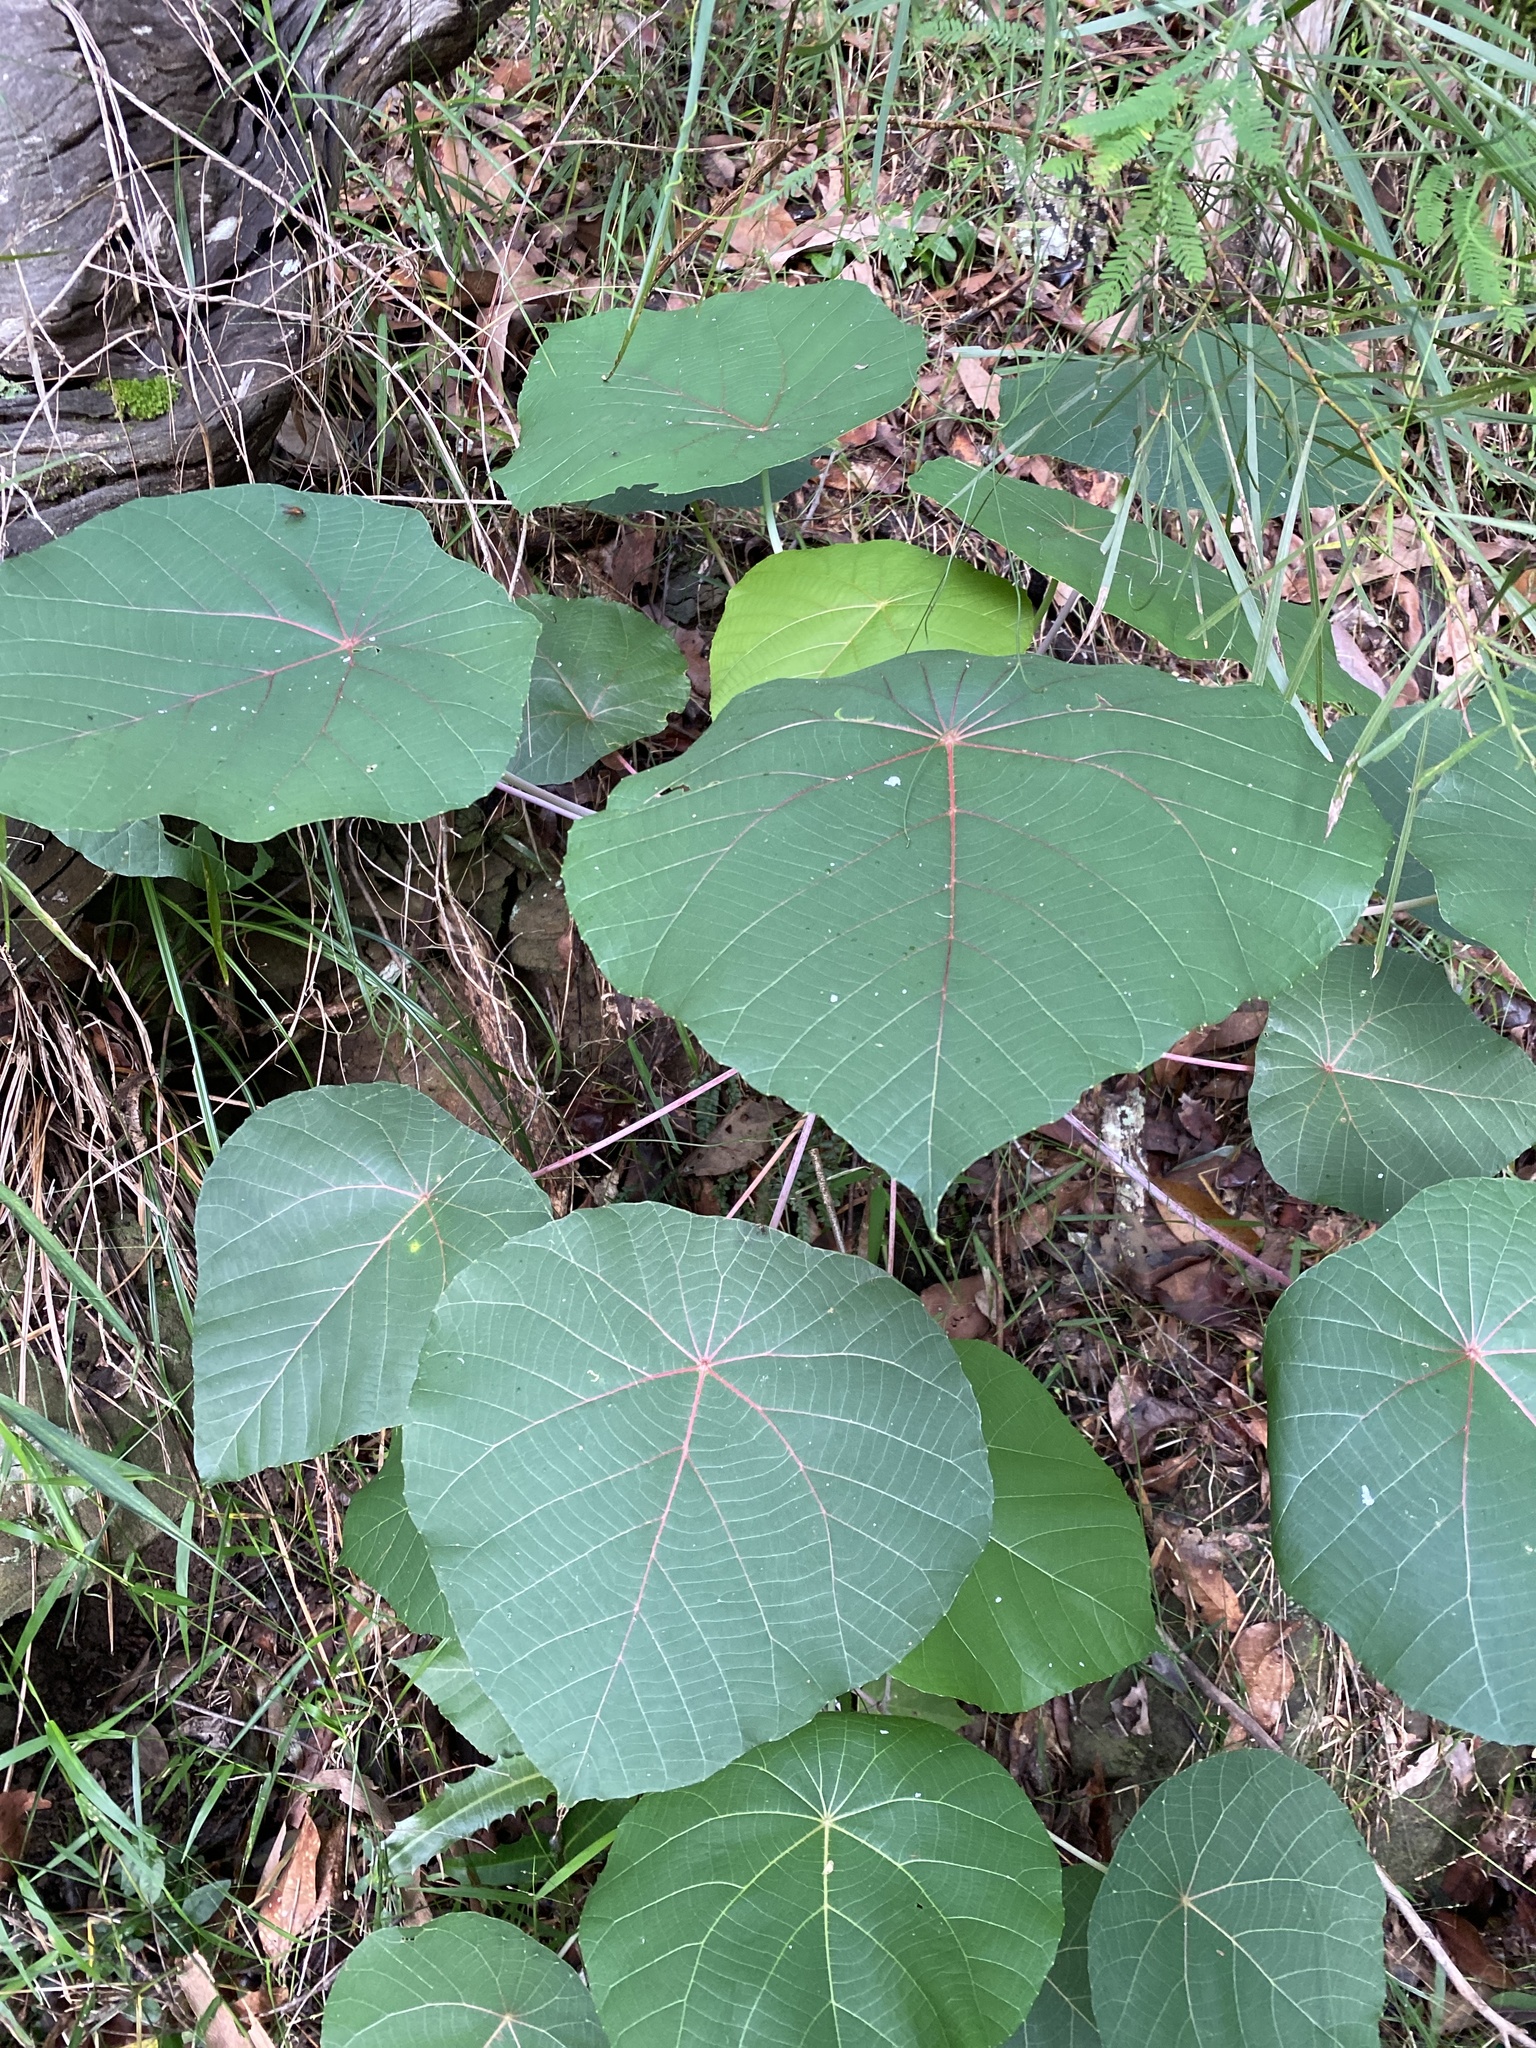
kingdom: Plantae
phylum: Tracheophyta
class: Magnoliopsida
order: Malpighiales
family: Euphorbiaceae
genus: Macaranga
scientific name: Macaranga tanarius
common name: Parasol leaf tree
